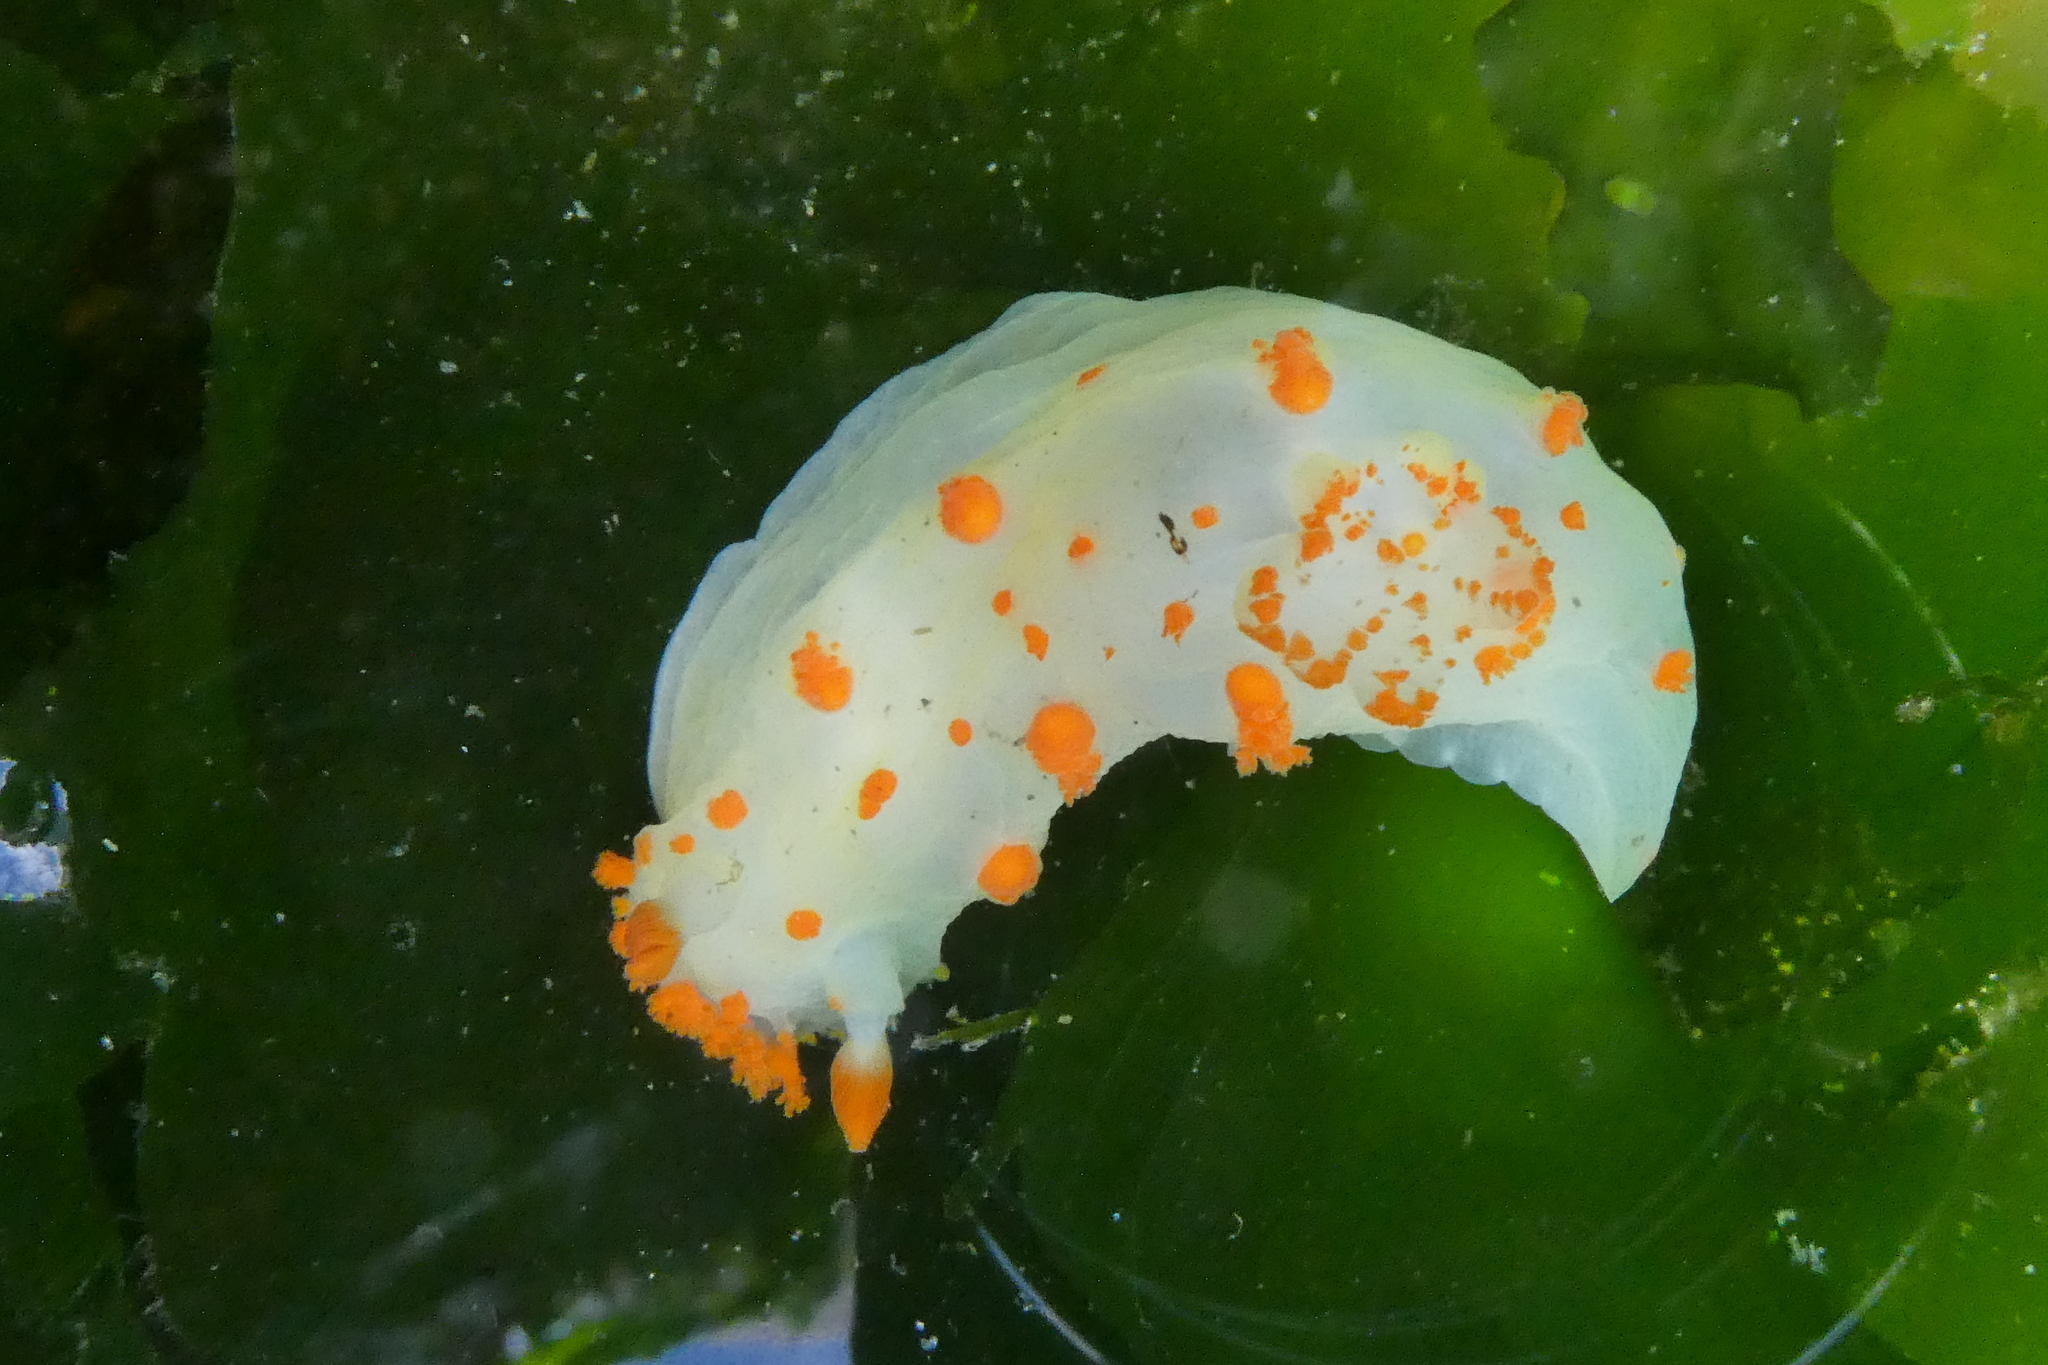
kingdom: Animalia
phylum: Mollusca
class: Gastropoda
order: Nudibranchia
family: Polyceridae
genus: Triopha
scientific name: Triopha modesta
